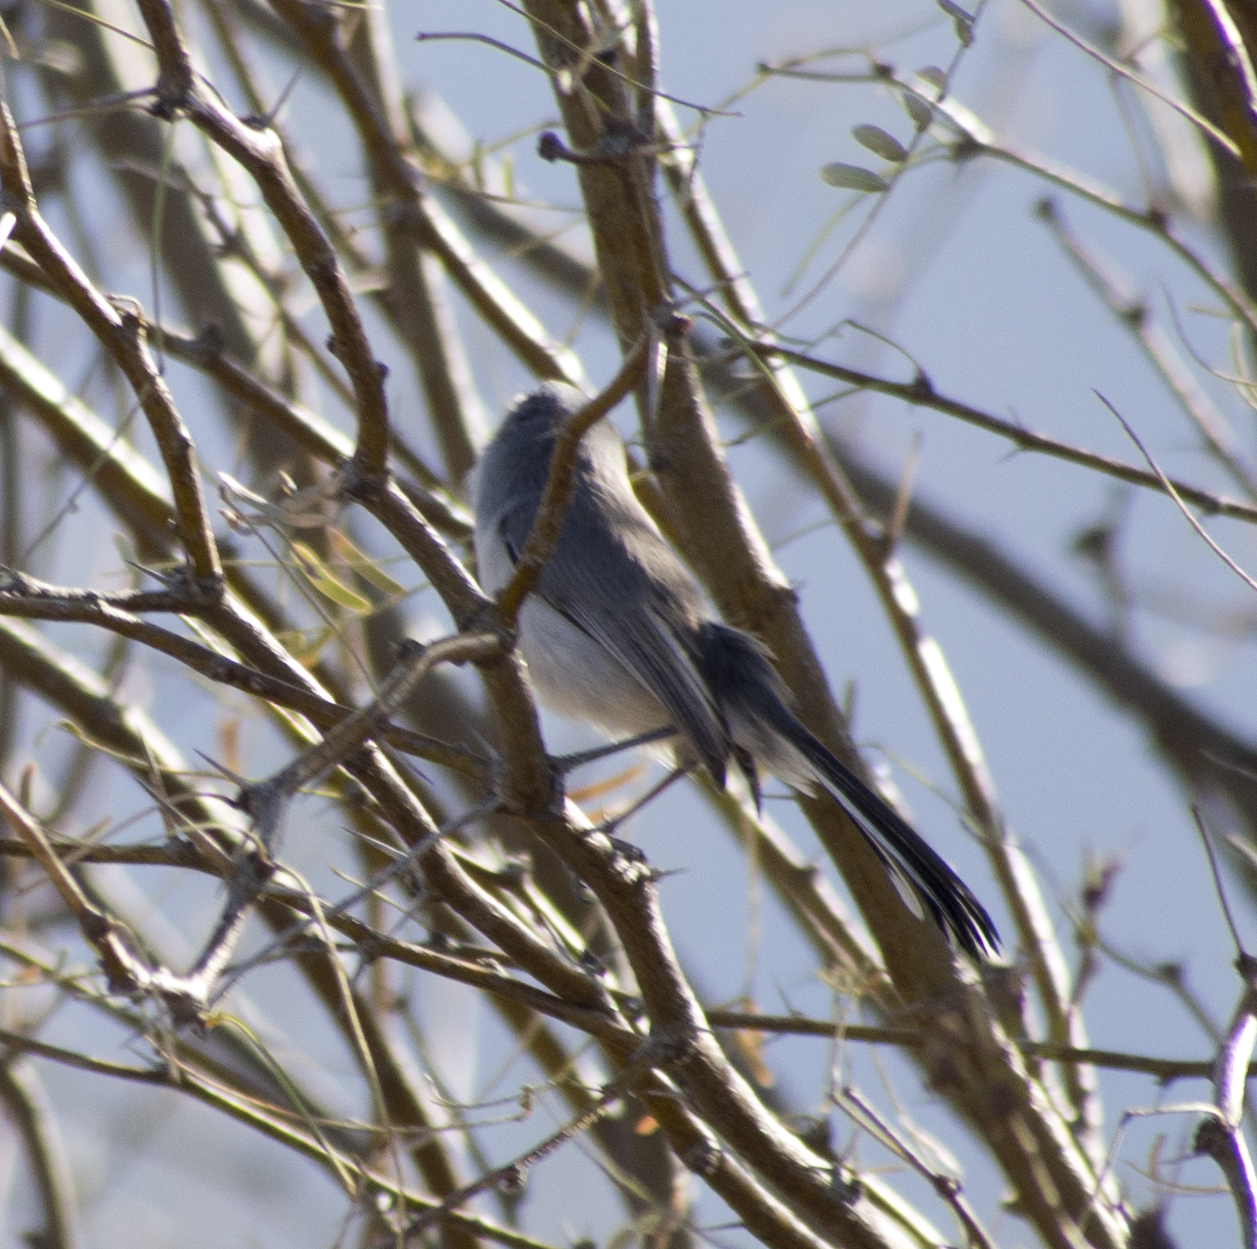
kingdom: Animalia
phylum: Chordata
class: Aves
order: Passeriformes
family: Polioptilidae
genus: Polioptila
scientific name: Polioptila melanura
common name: Black-tailed gnatcatcher
